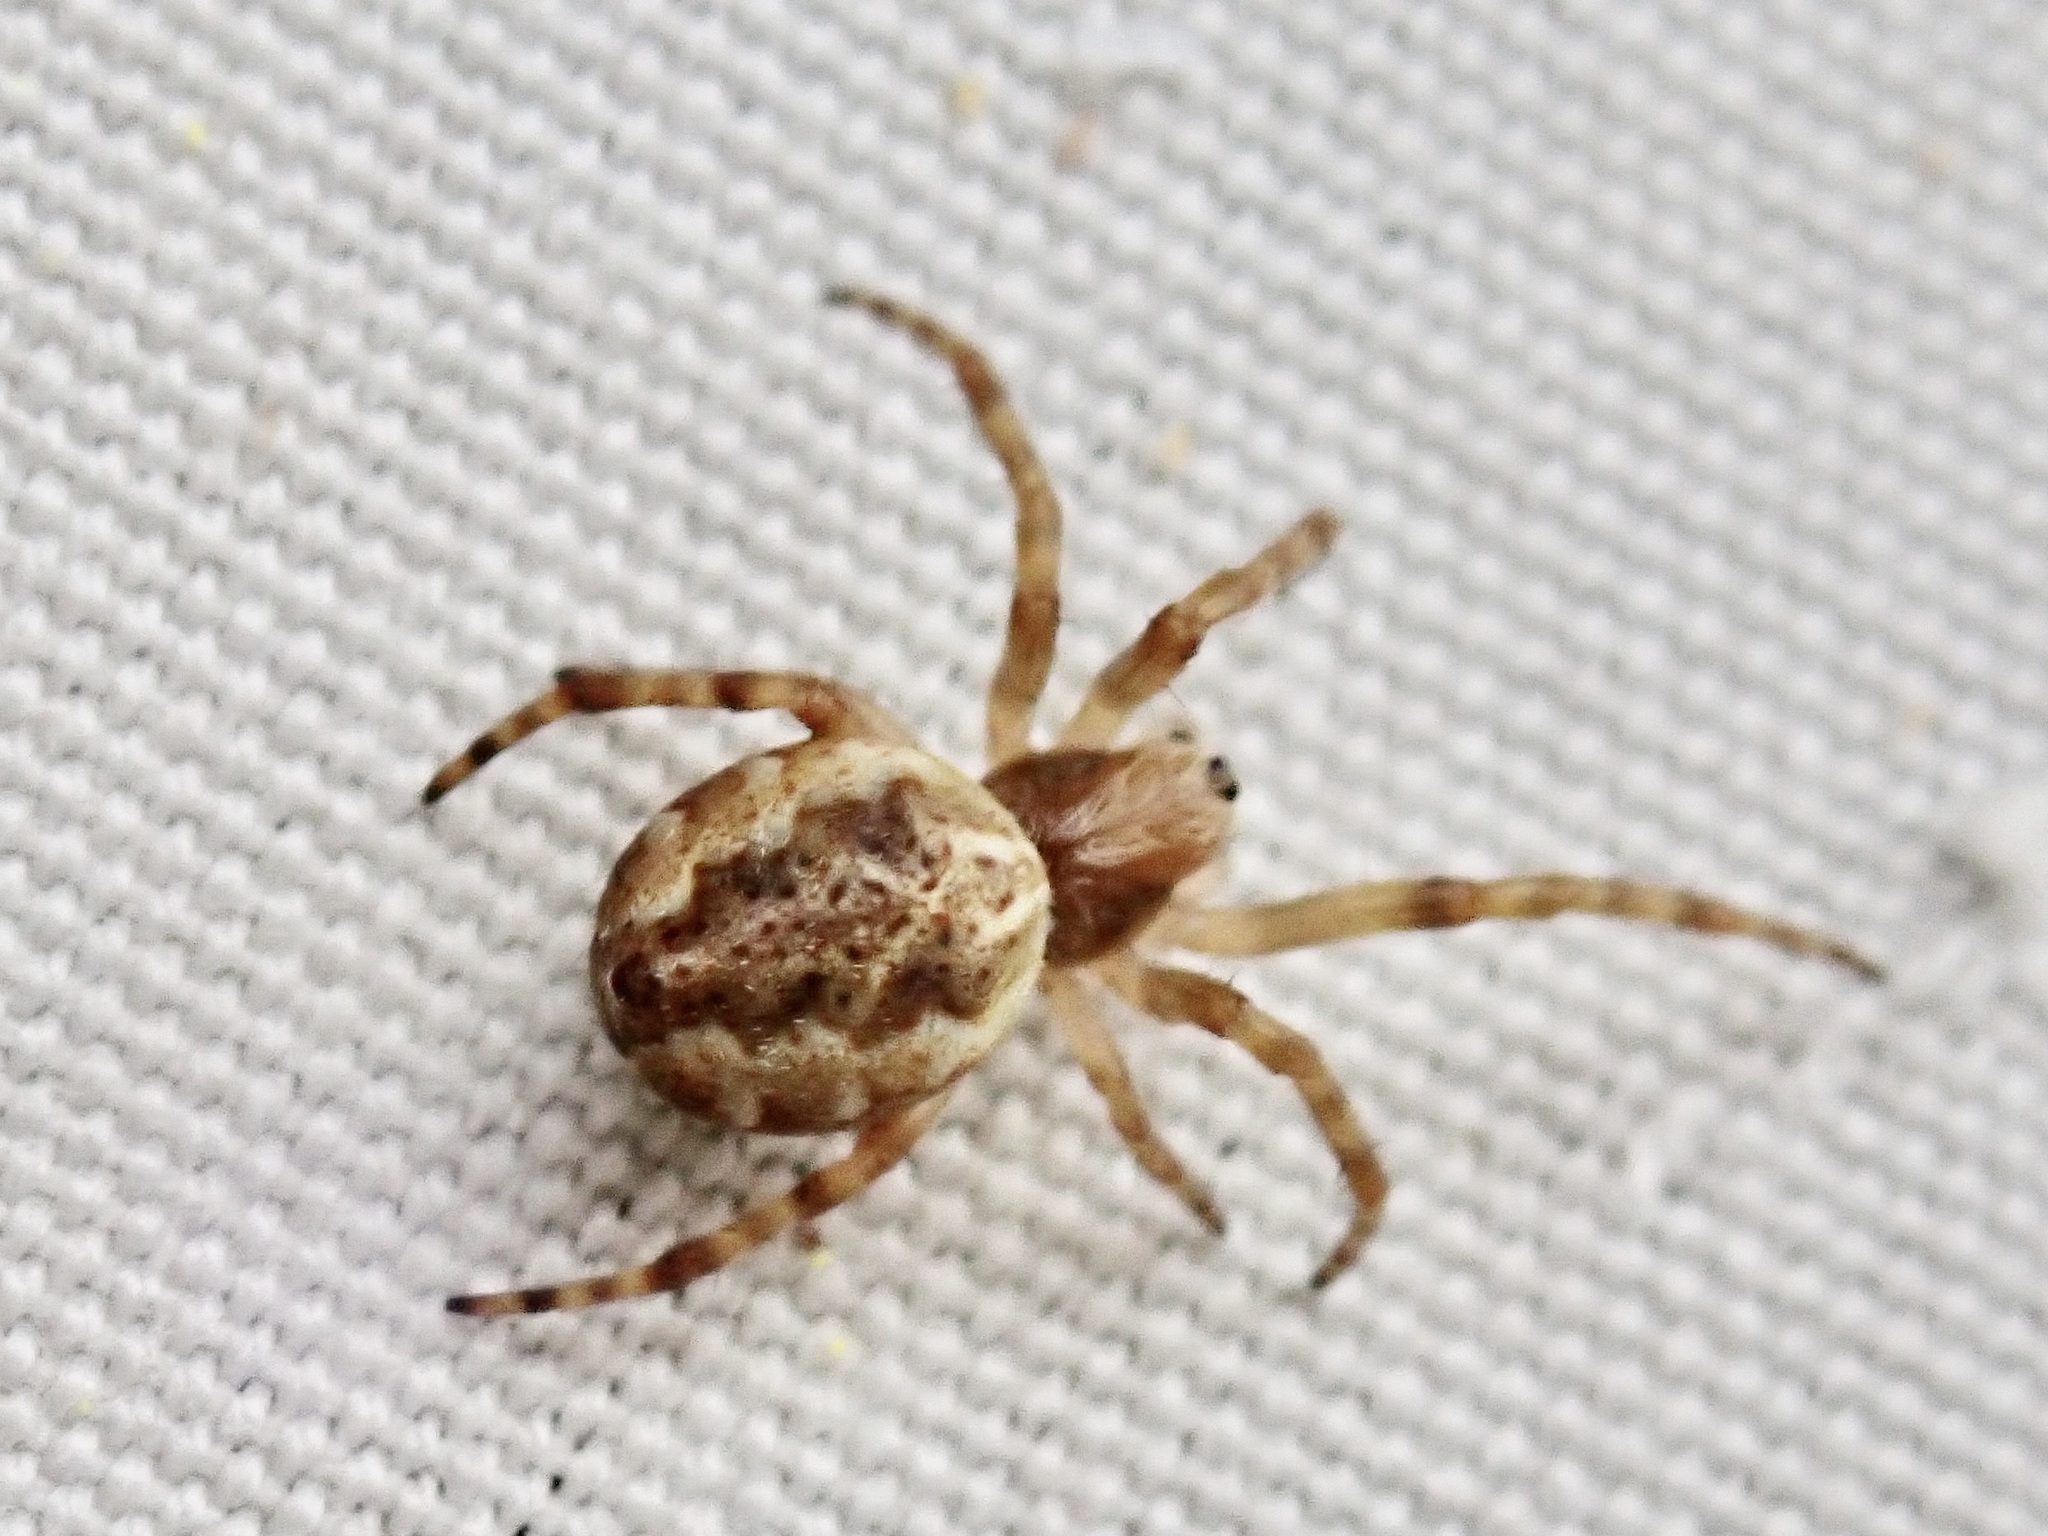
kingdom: Animalia
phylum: Arthropoda
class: Arachnida
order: Araneae
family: Araneidae
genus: Salsa
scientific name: Salsa fuliginata
